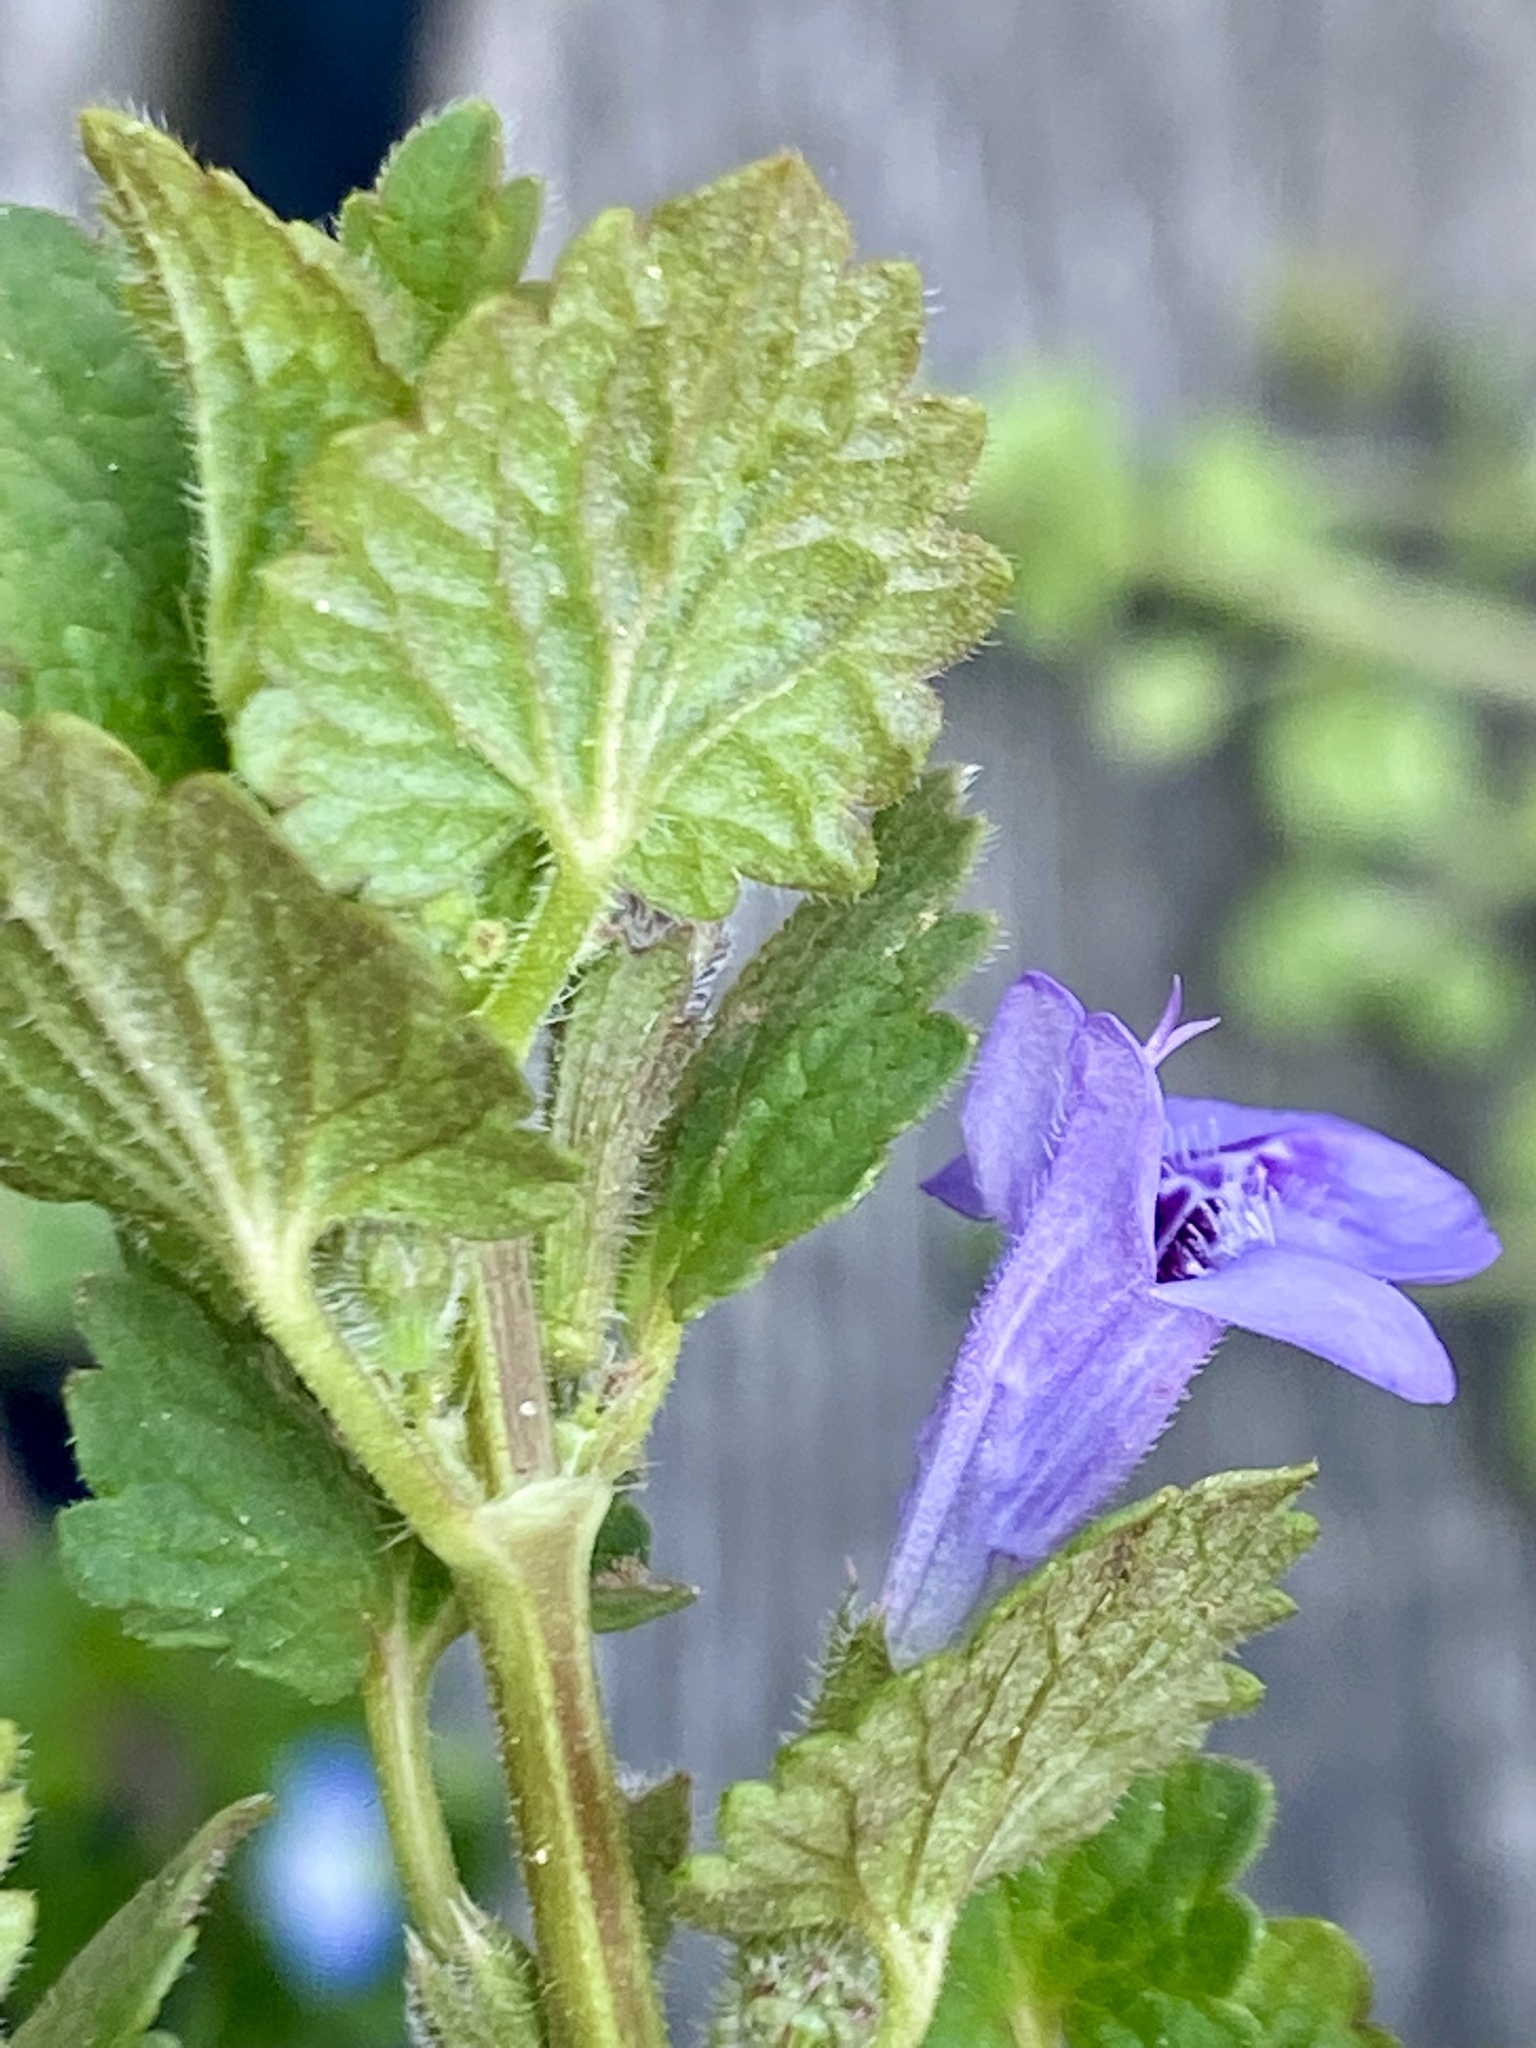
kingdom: Plantae
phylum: Tracheophyta
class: Magnoliopsida
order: Lamiales
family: Lamiaceae
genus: Glechoma
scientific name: Glechoma hederacea
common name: Ground ivy
